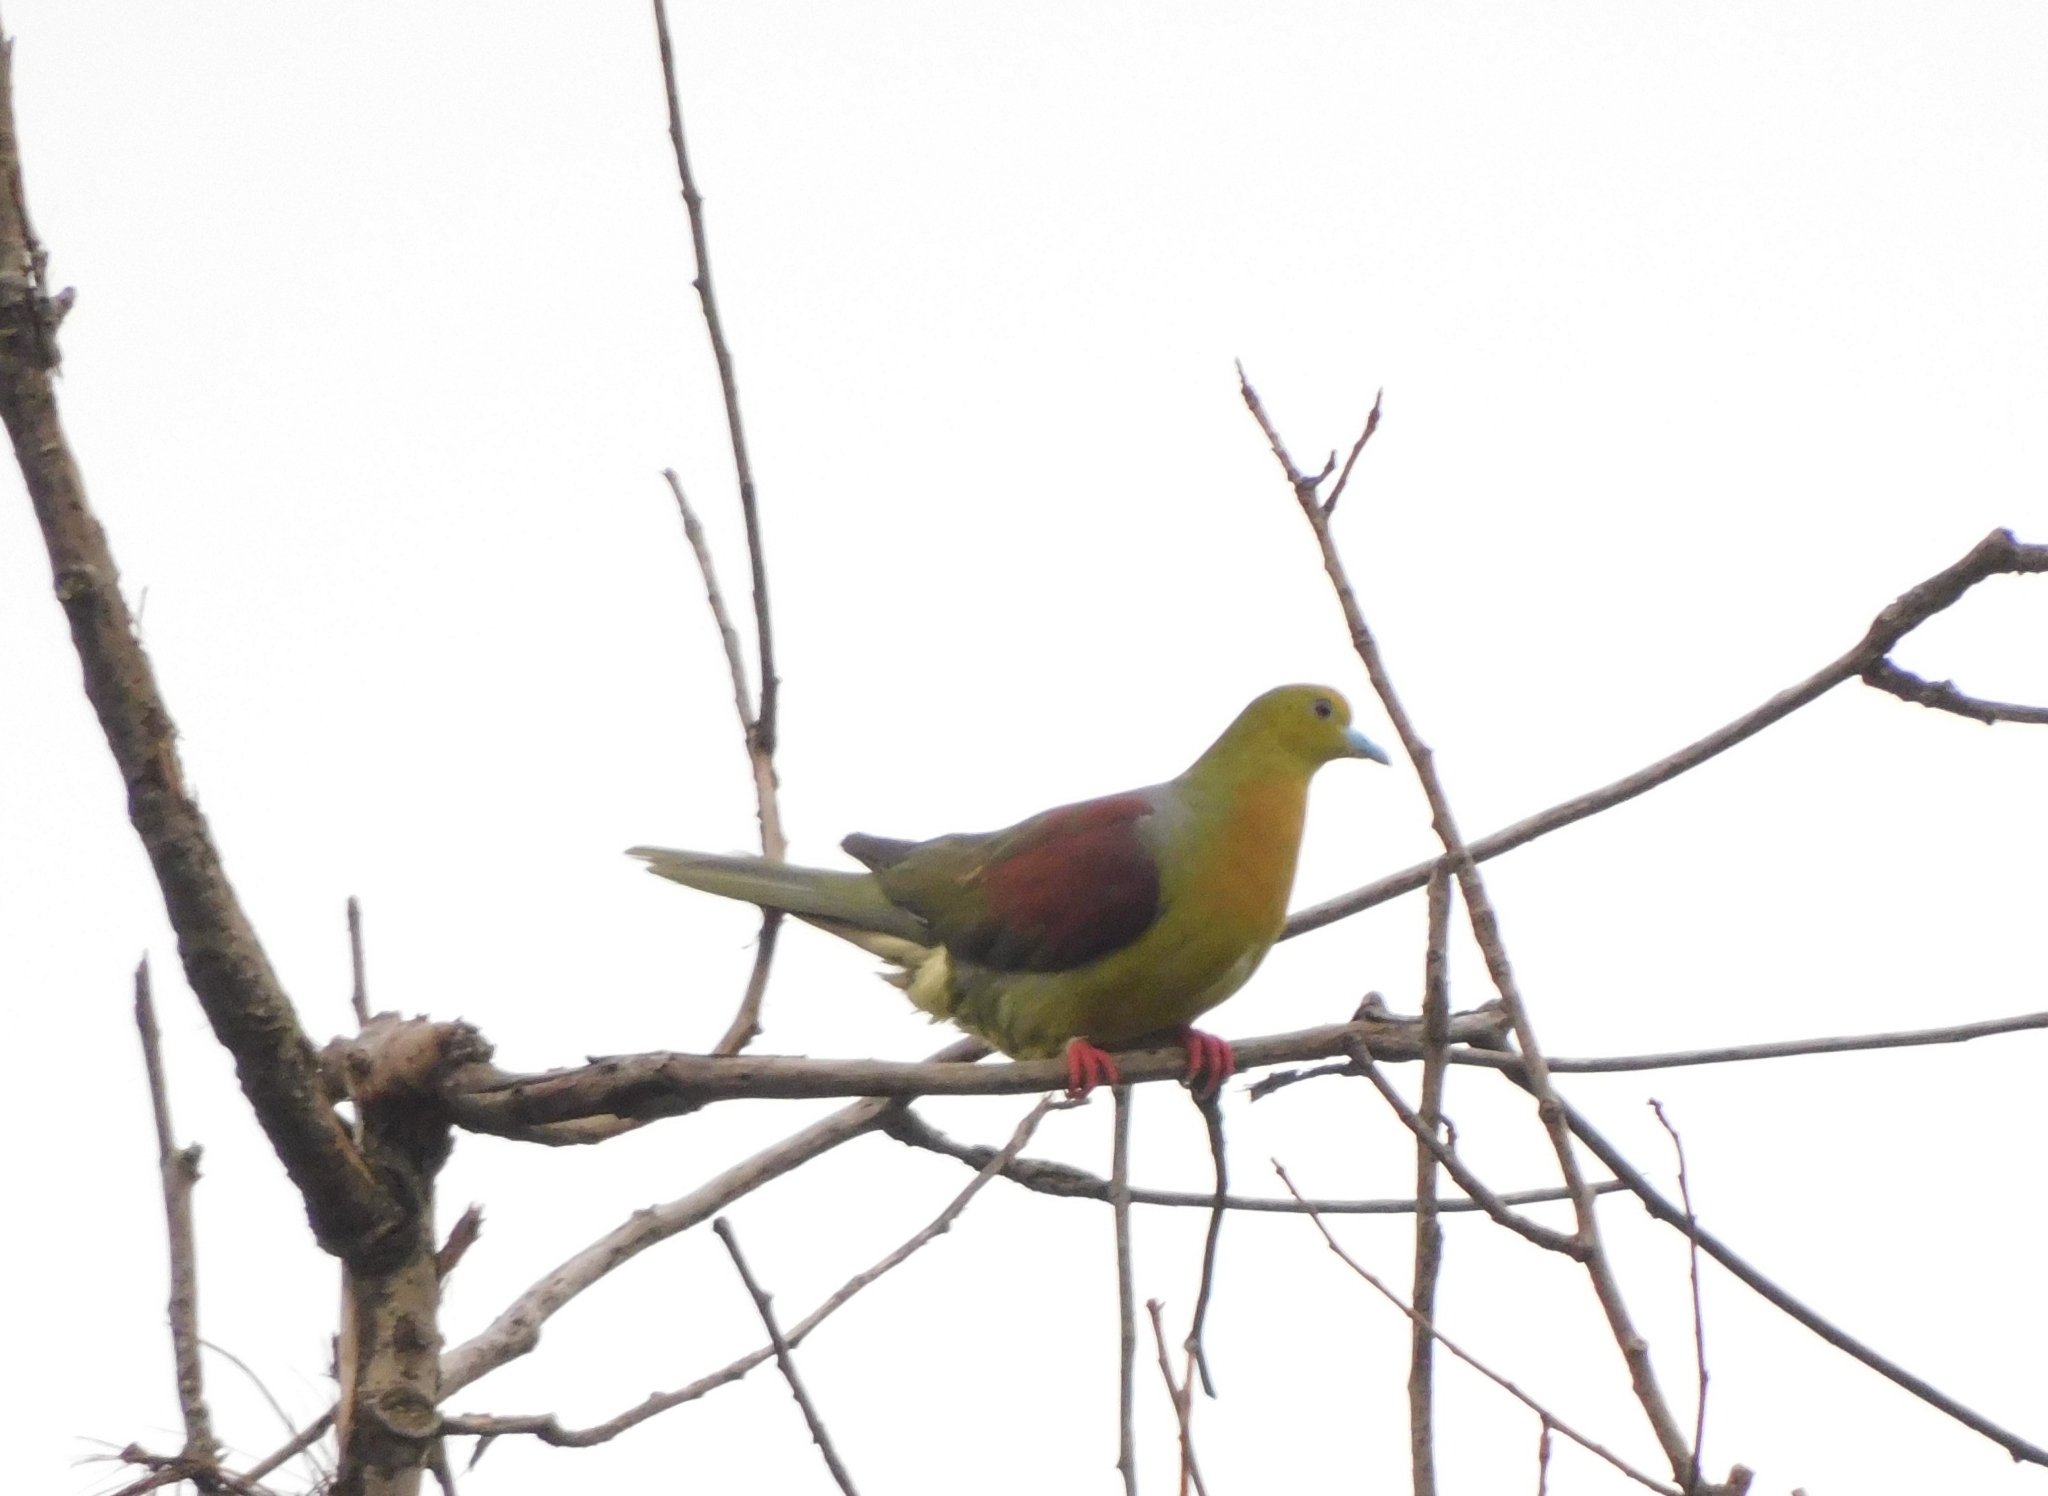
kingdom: Animalia
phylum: Chordata
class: Aves
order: Columbiformes
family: Columbidae
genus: Treron
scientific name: Treron sphenurus
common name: Wedge-tailed green pigeon
